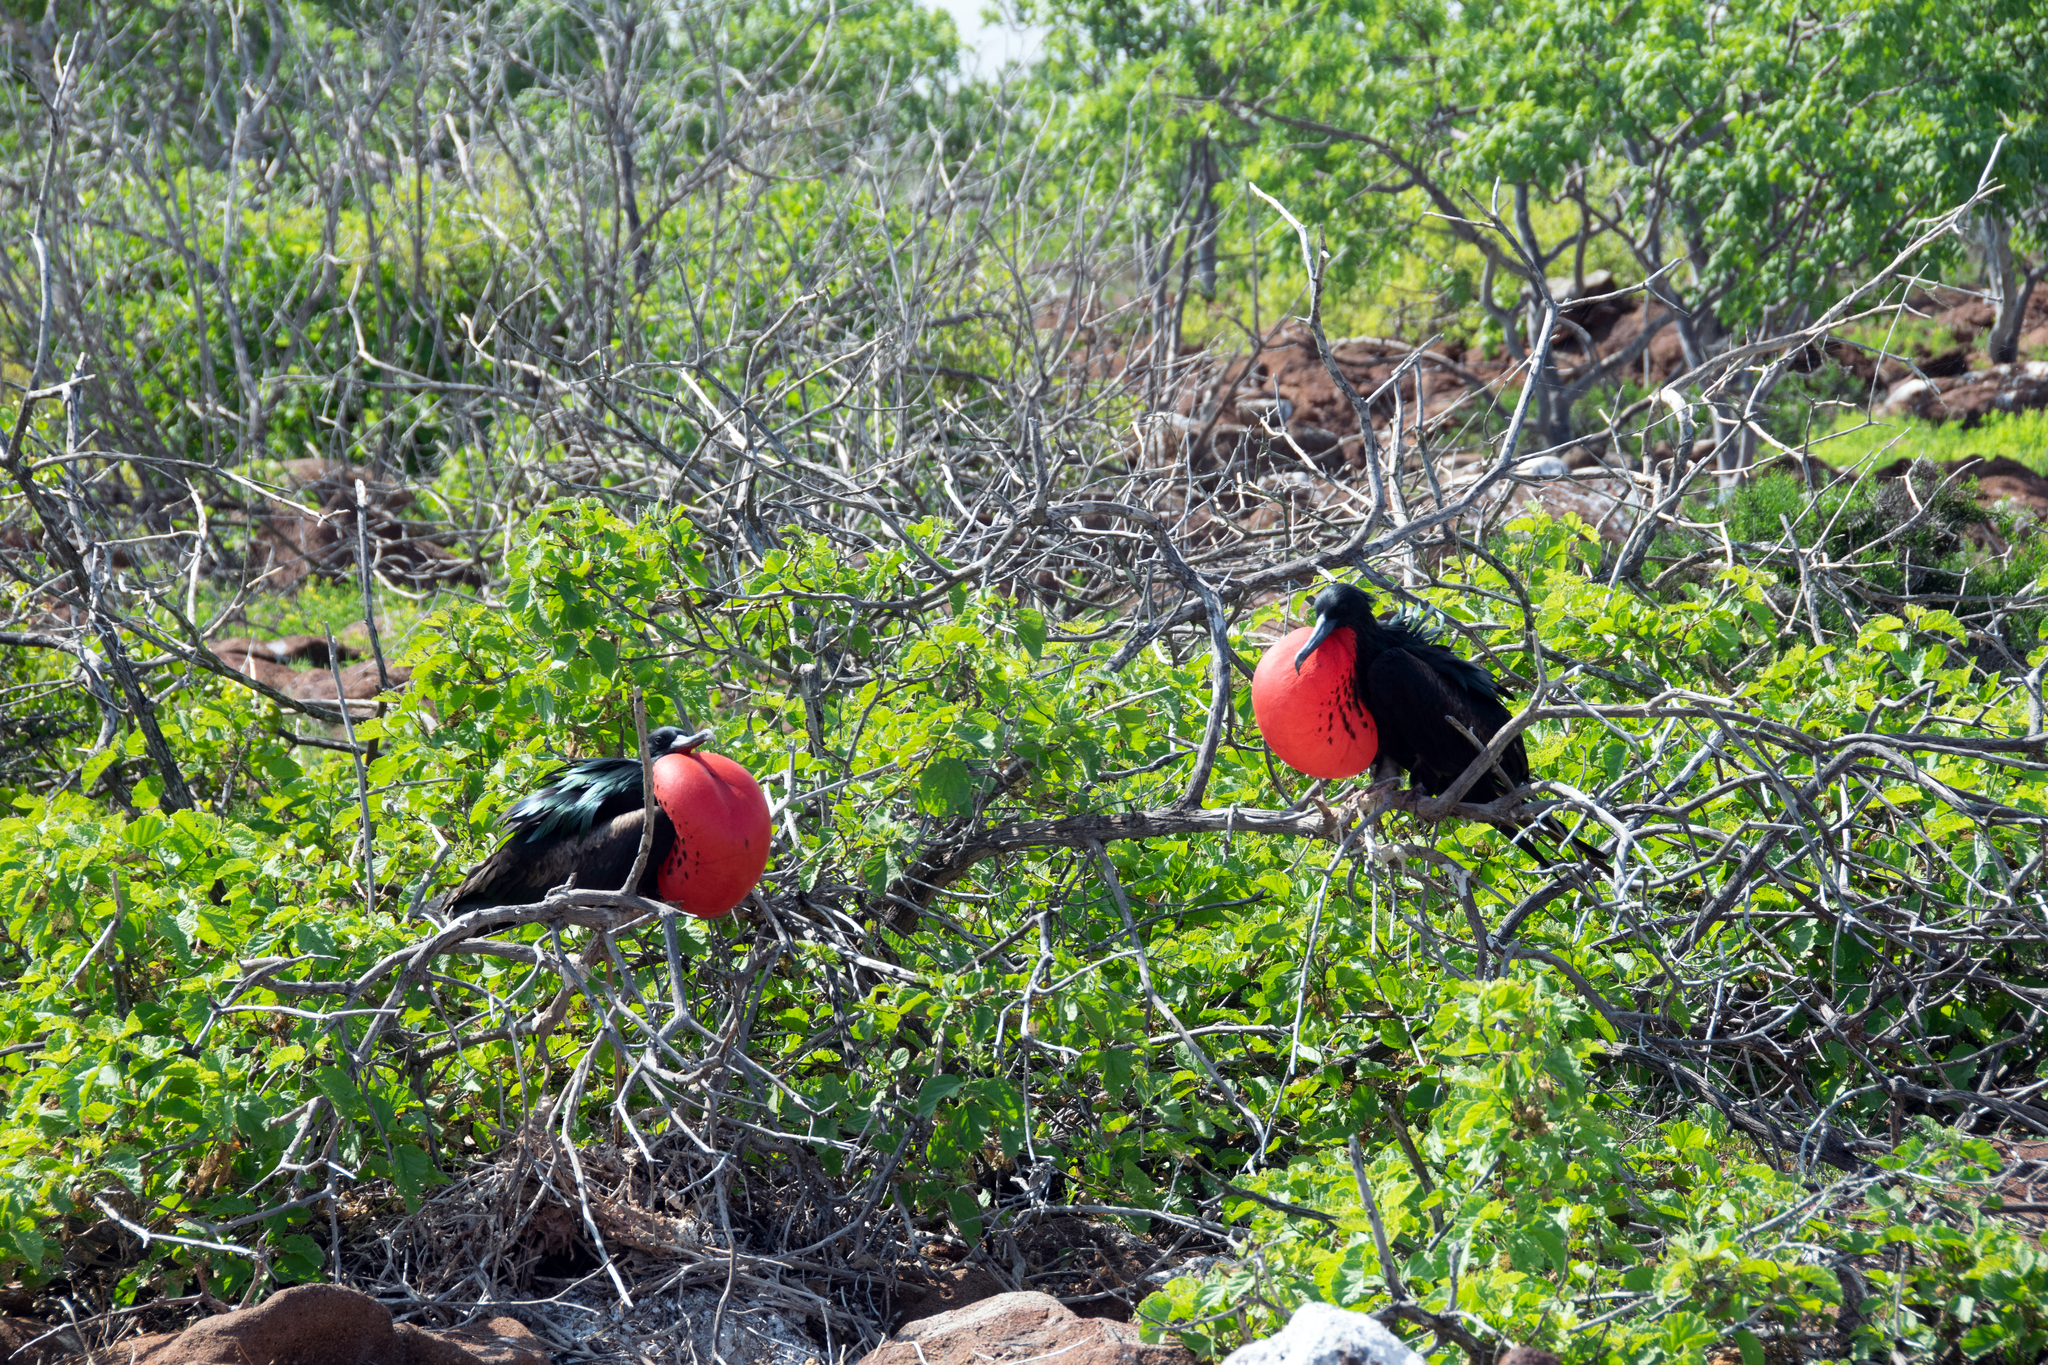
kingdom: Animalia
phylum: Chordata
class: Aves
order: Suliformes
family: Fregatidae
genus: Fregata
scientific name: Fregata minor
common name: Great frigatebird
